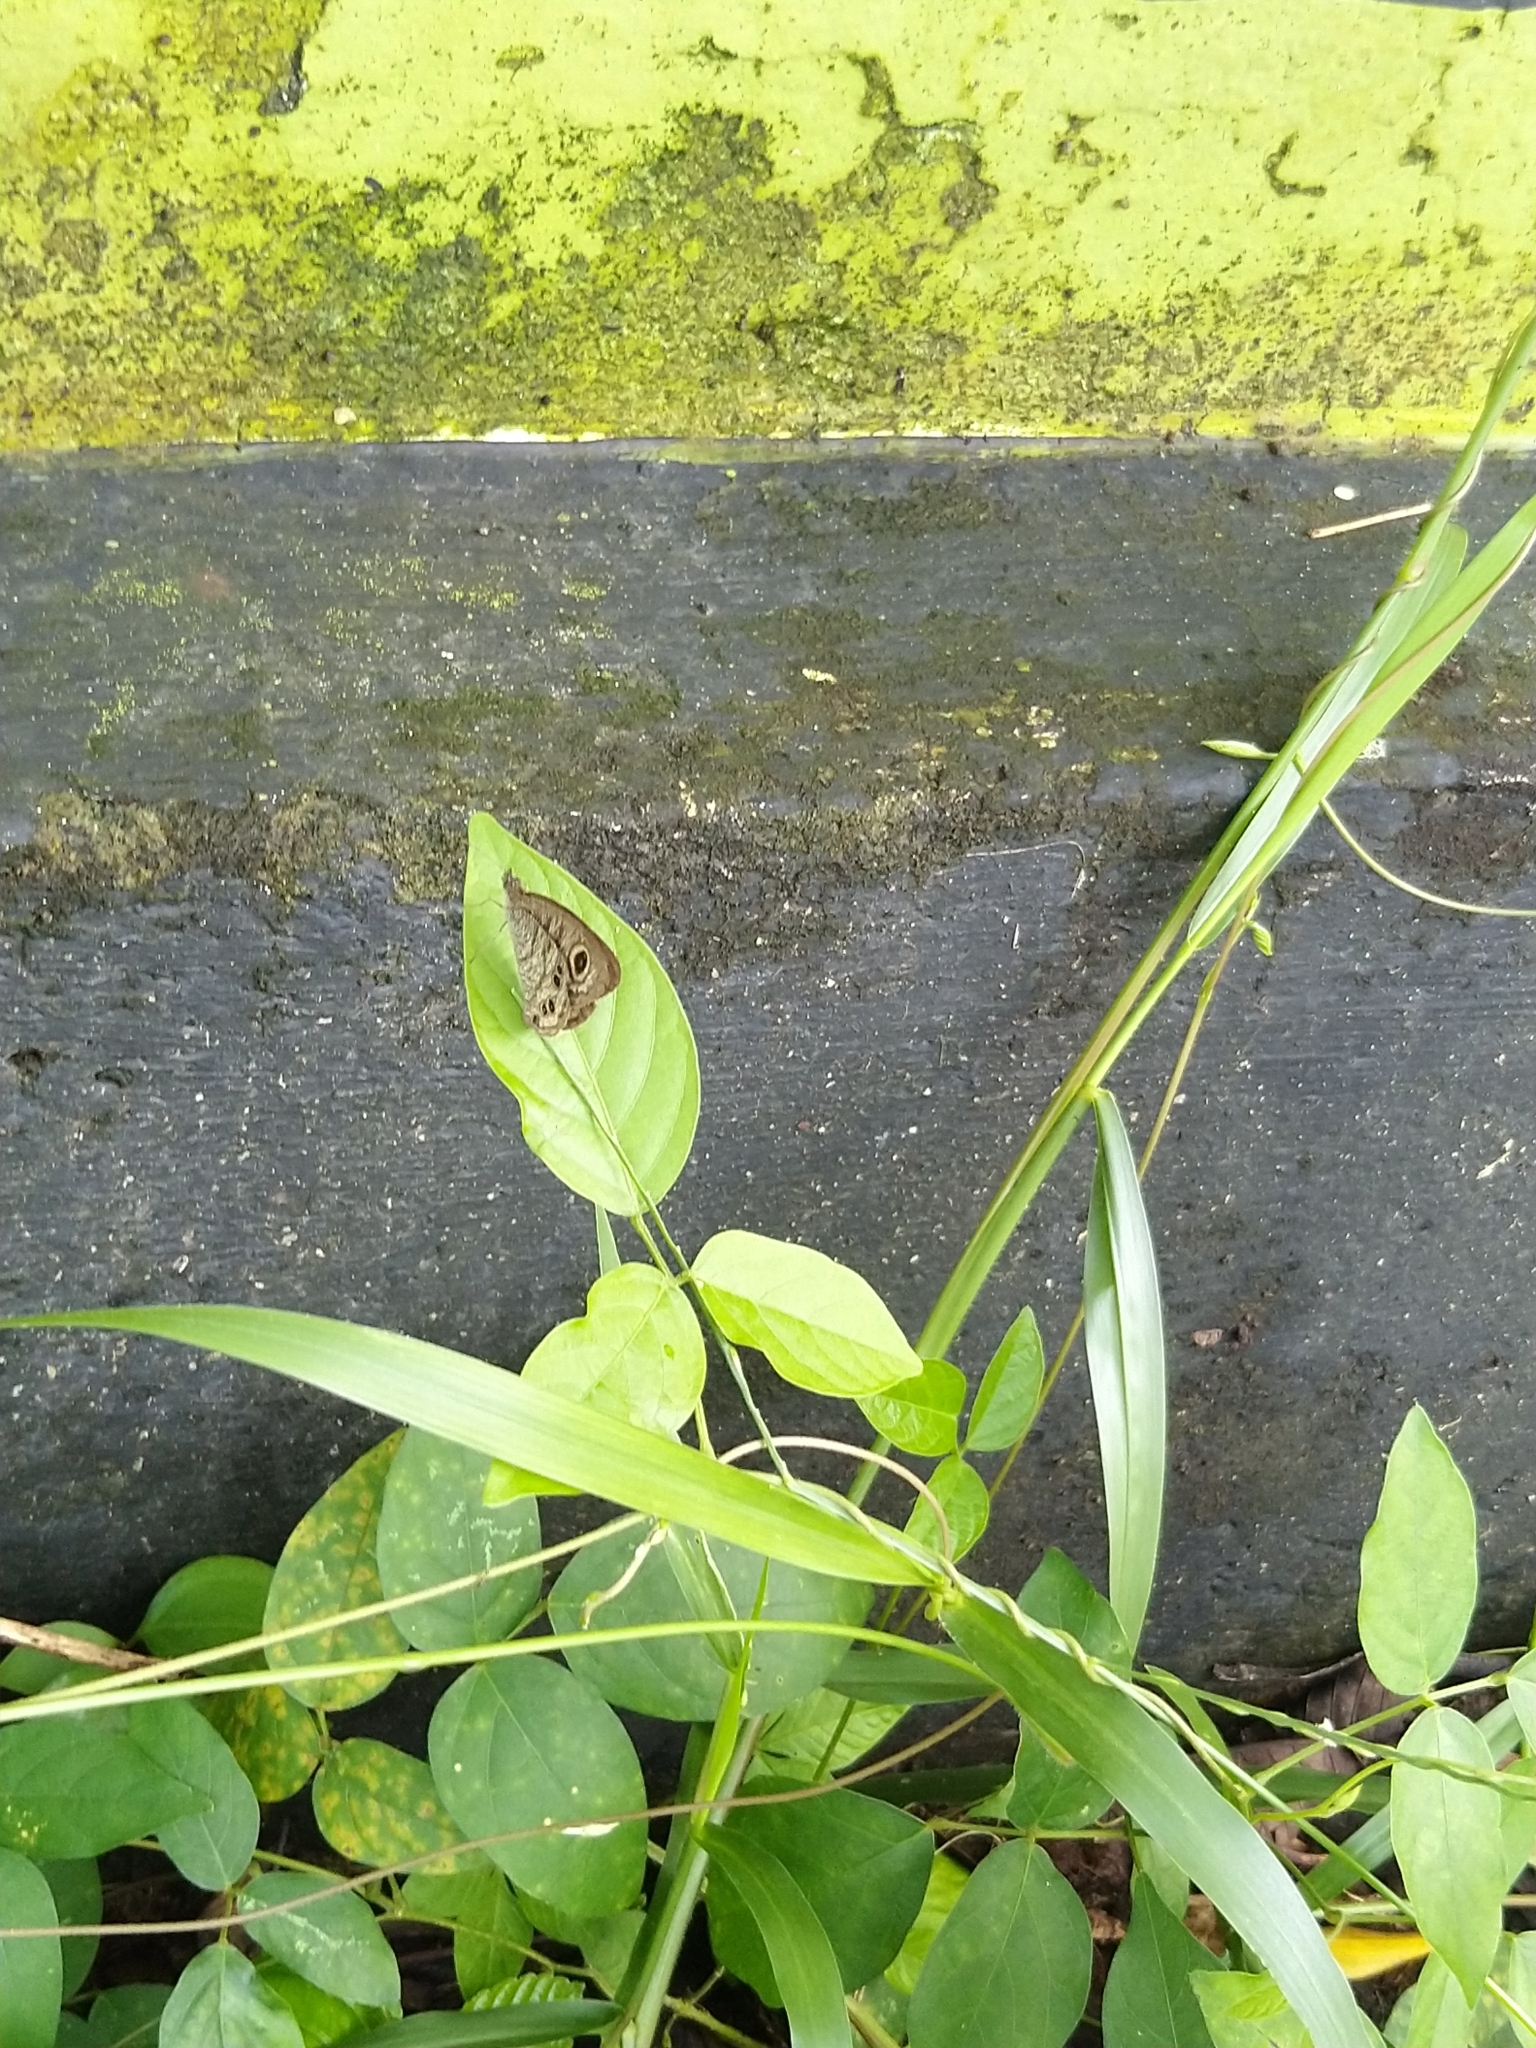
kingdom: Animalia
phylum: Arthropoda
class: Insecta
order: Lepidoptera
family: Nymphalidae
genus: Ypthima
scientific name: Ypthima baldus
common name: Common five-ring
